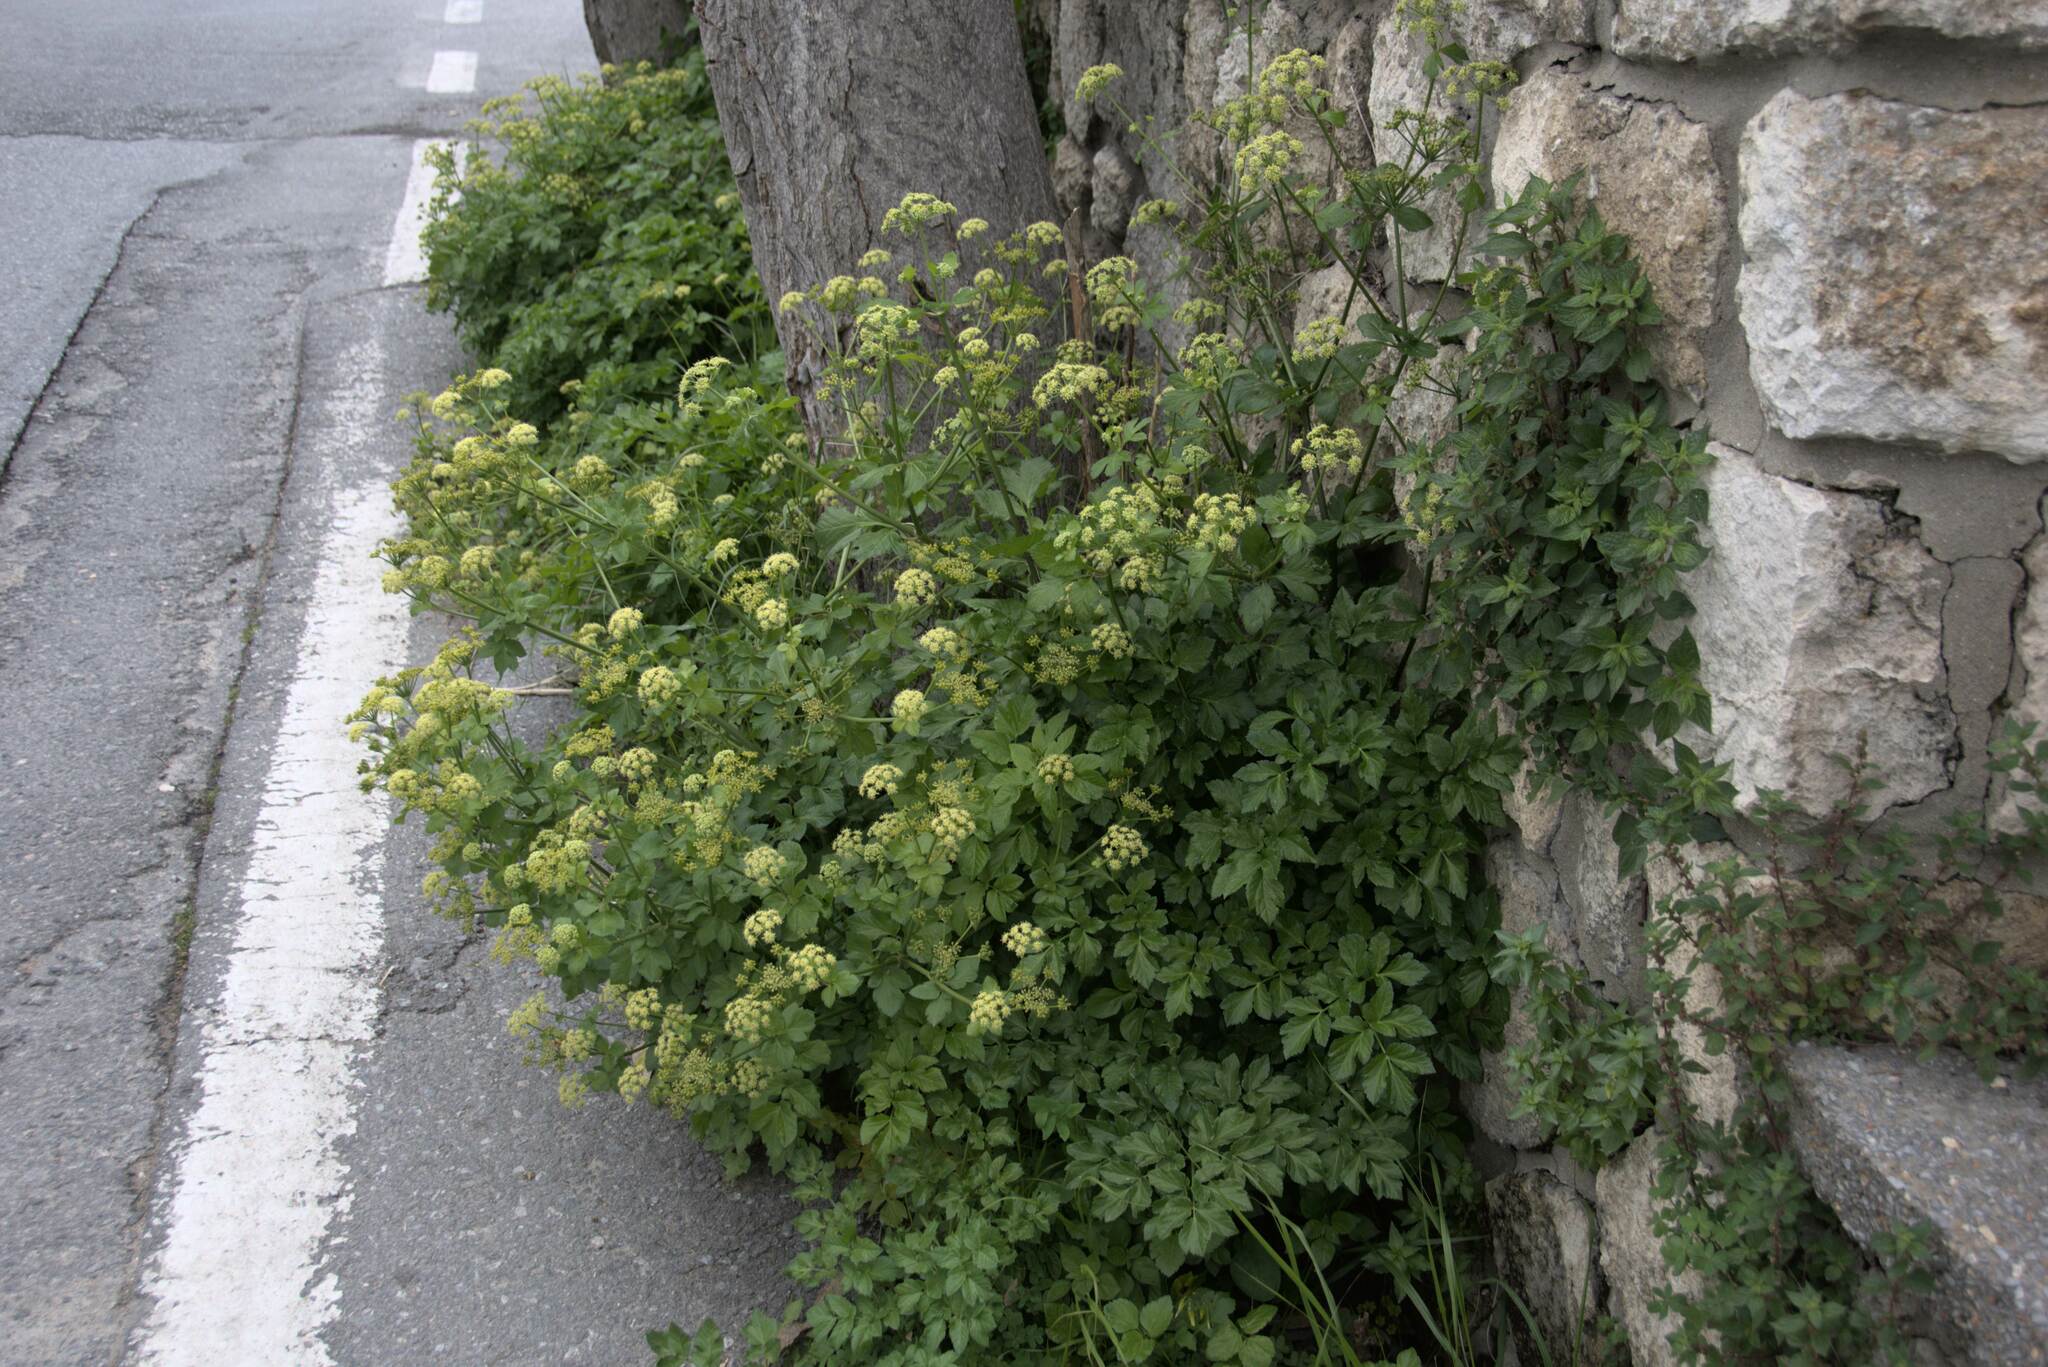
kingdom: Plantae
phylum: Tracheophyta
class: Magnoliopsida
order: Apiales
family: Apiaceae
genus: Smyrnium
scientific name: Smyrnium olusatrum
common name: Alexanders
